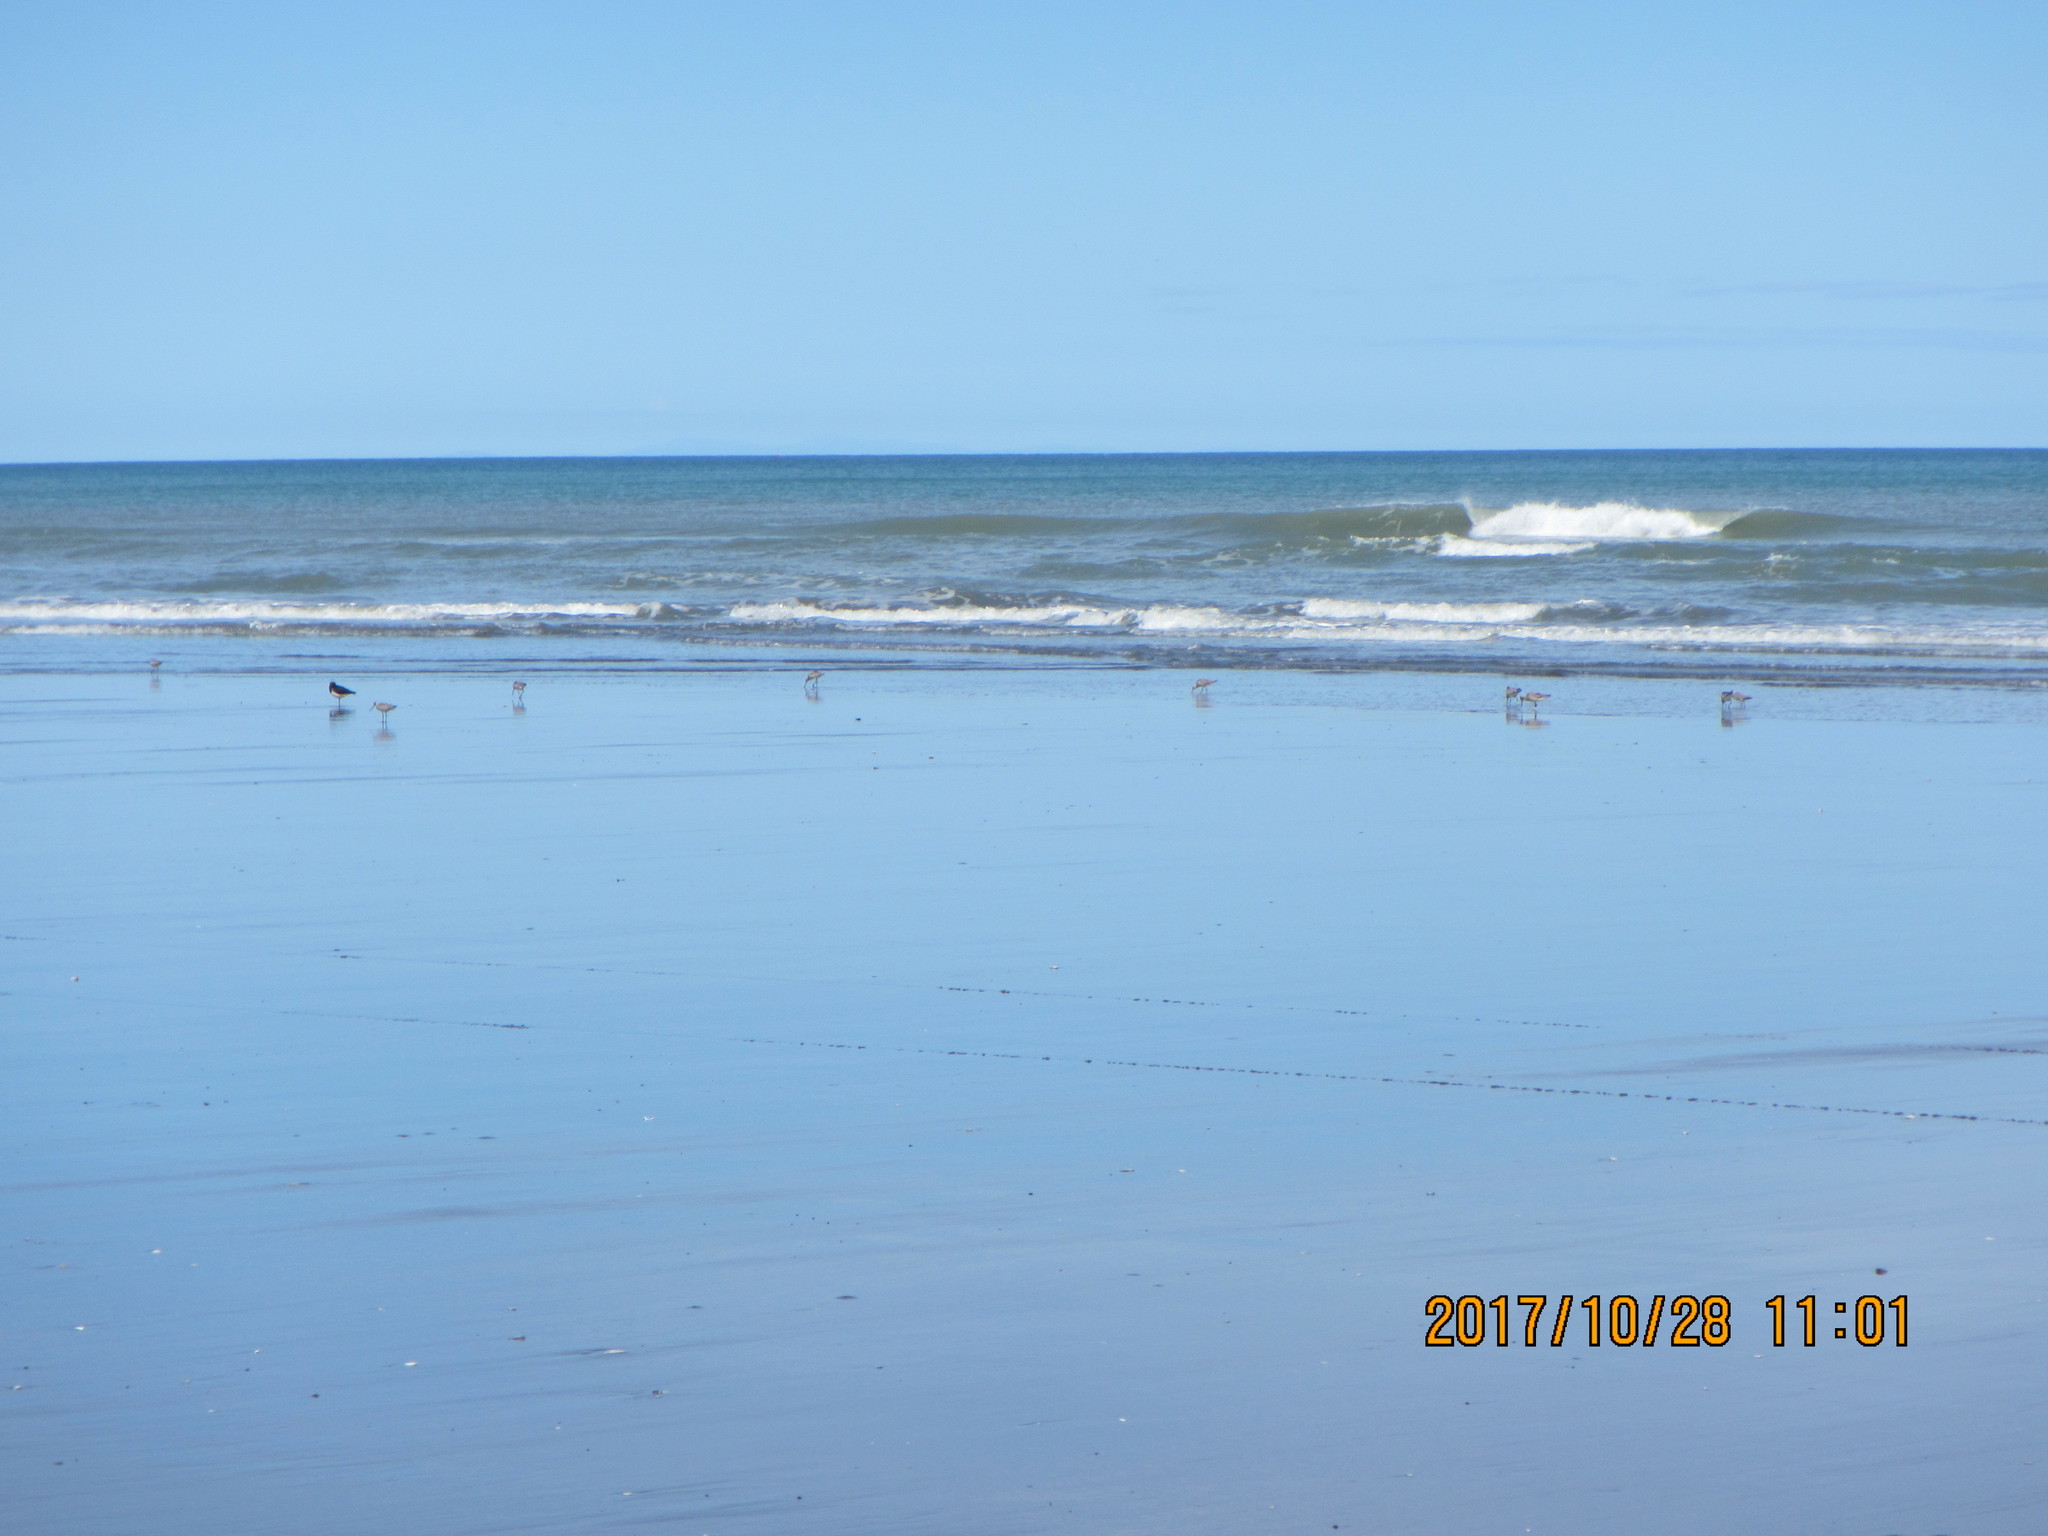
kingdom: Animalia
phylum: Chordata
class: Aves
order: Charadriiformes
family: Scolopacidae
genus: Limosa
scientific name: Limosa lapponica
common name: Bar-tailed godwit
